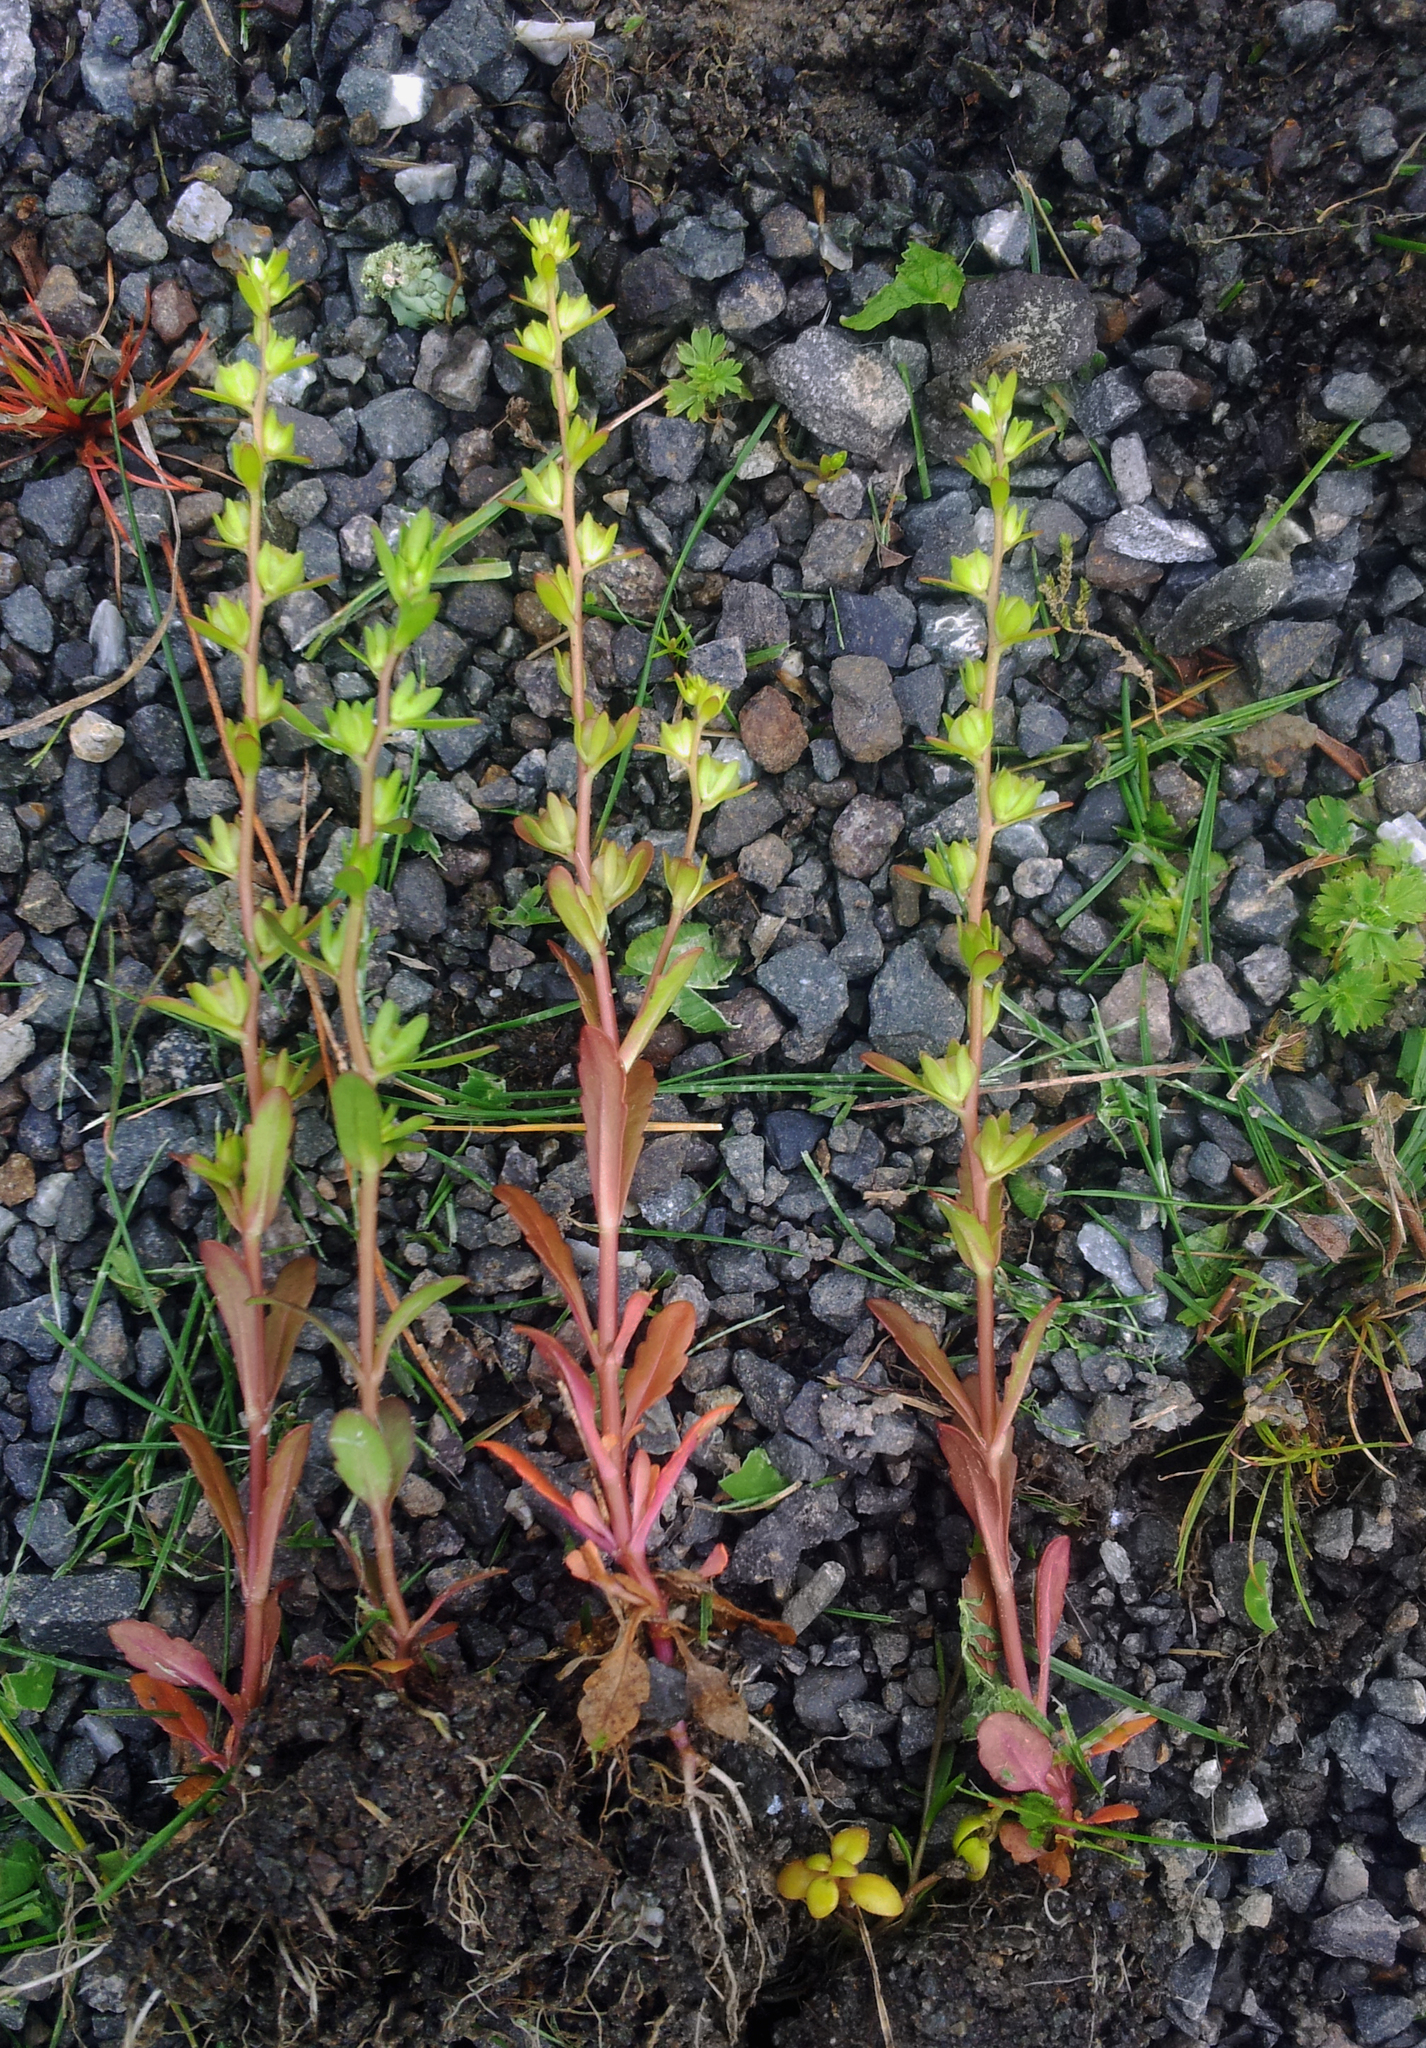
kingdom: Plantae
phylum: Tracheophyta
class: Magnoliopsida
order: Lamiales
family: Plantaginaceae
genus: Veronica
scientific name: Veronica peregrina
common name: Neckweed
